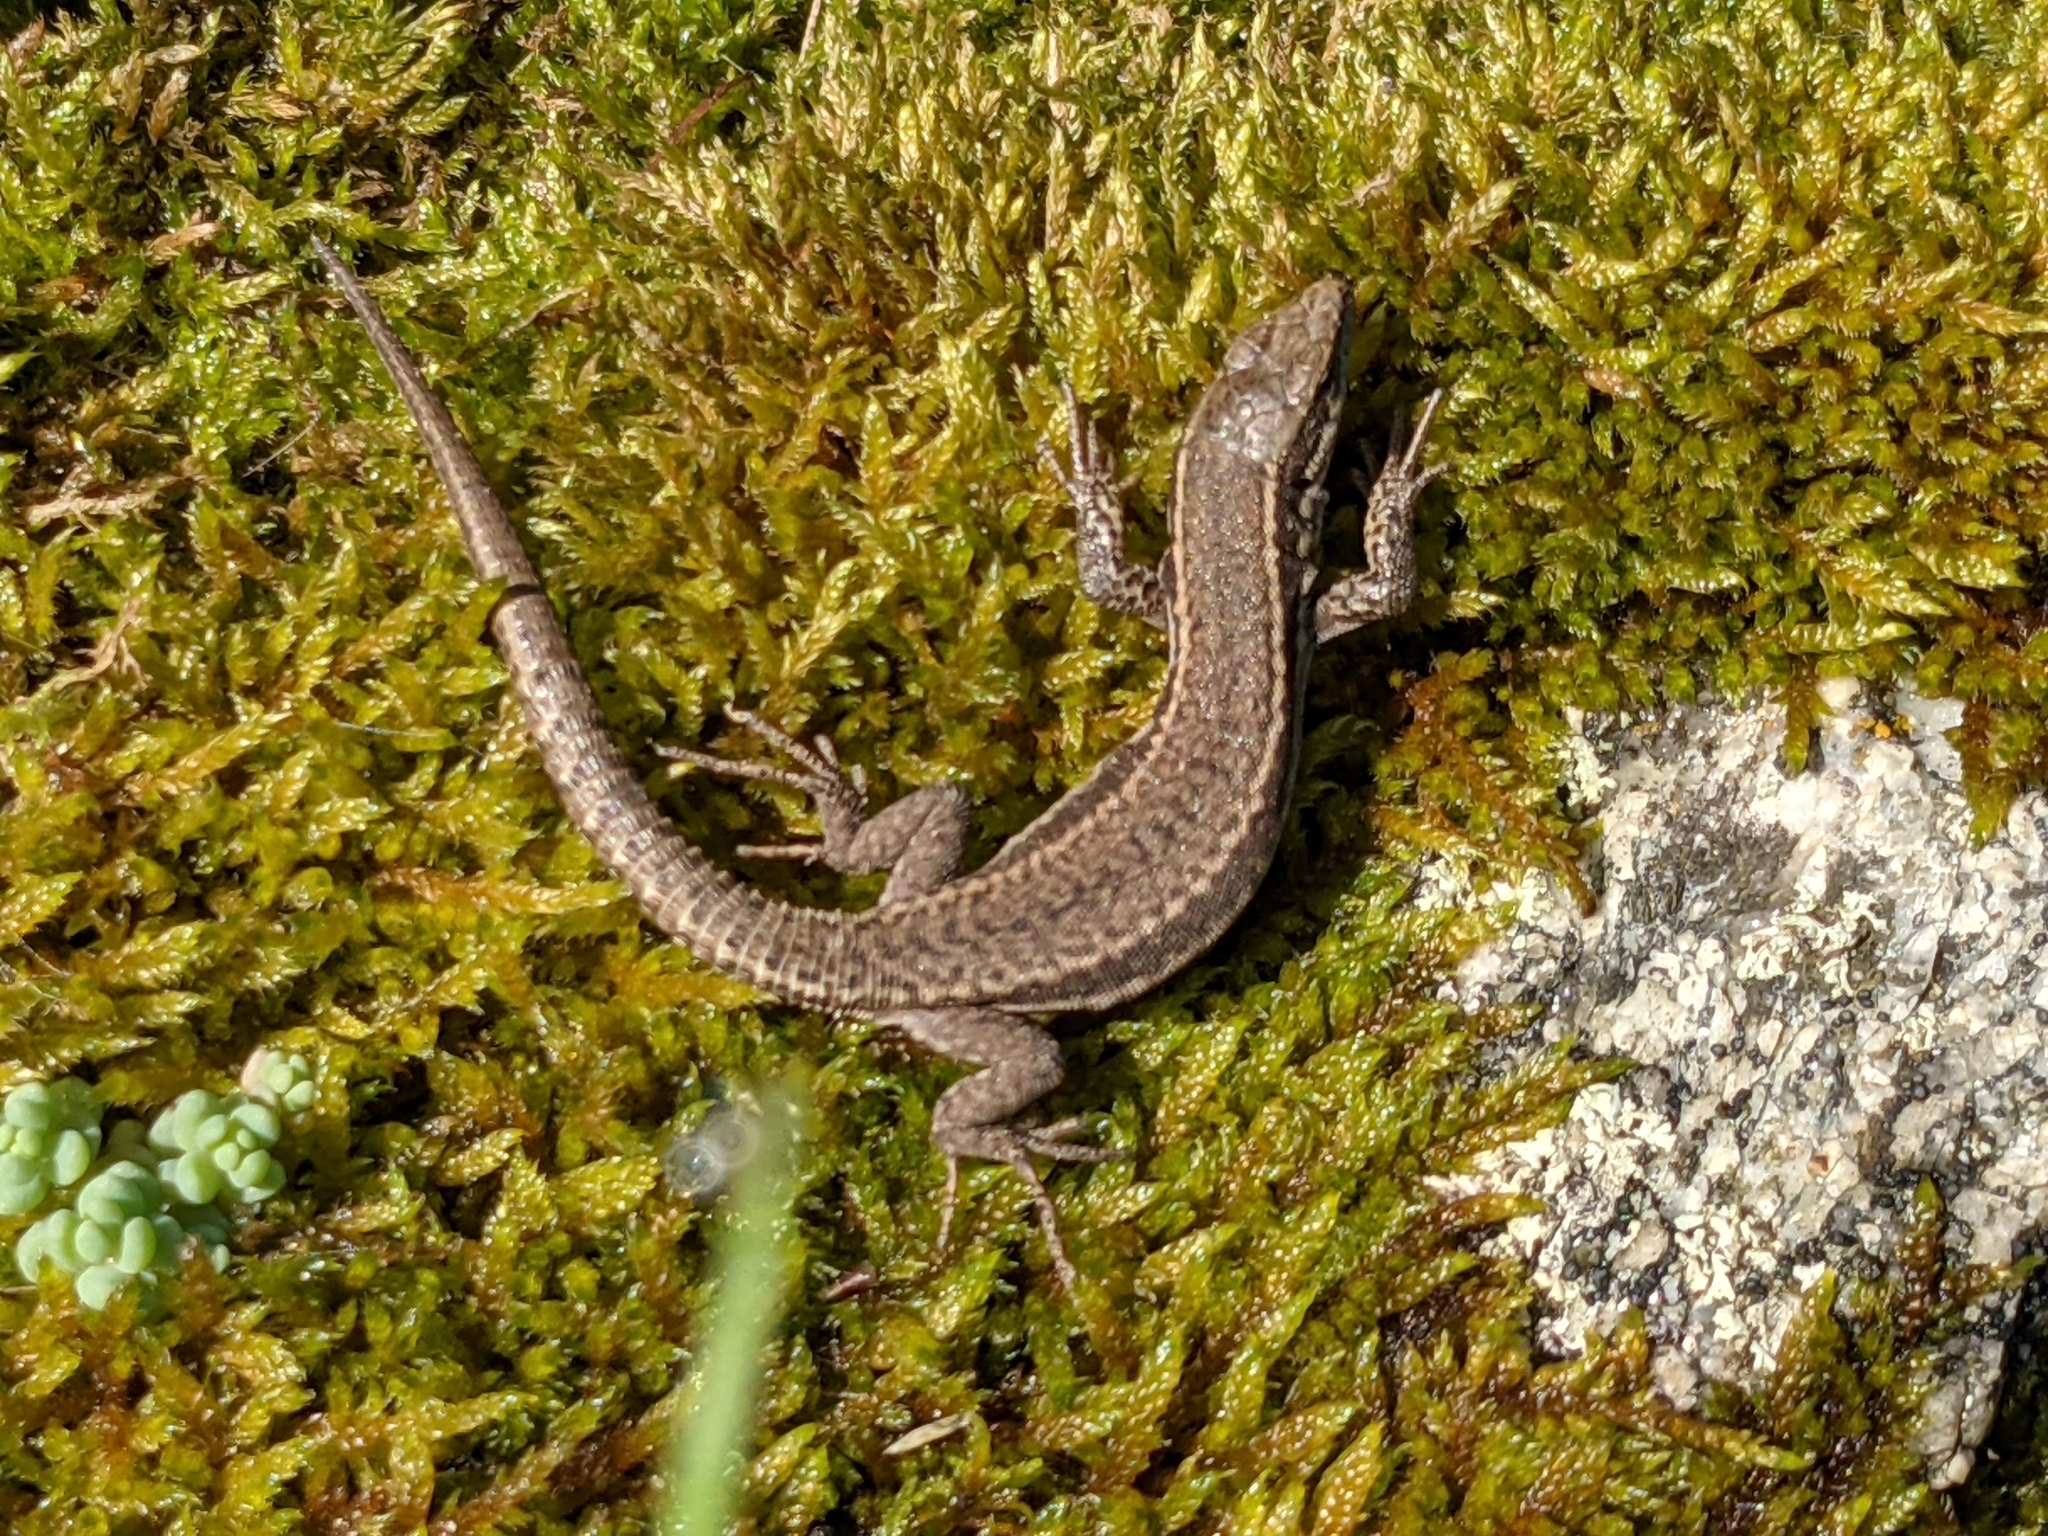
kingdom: Animalia
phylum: Chordata
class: Squamata
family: Lacertidae
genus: Podarcis
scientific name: Podarcis muralis
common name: Common wall lizard
